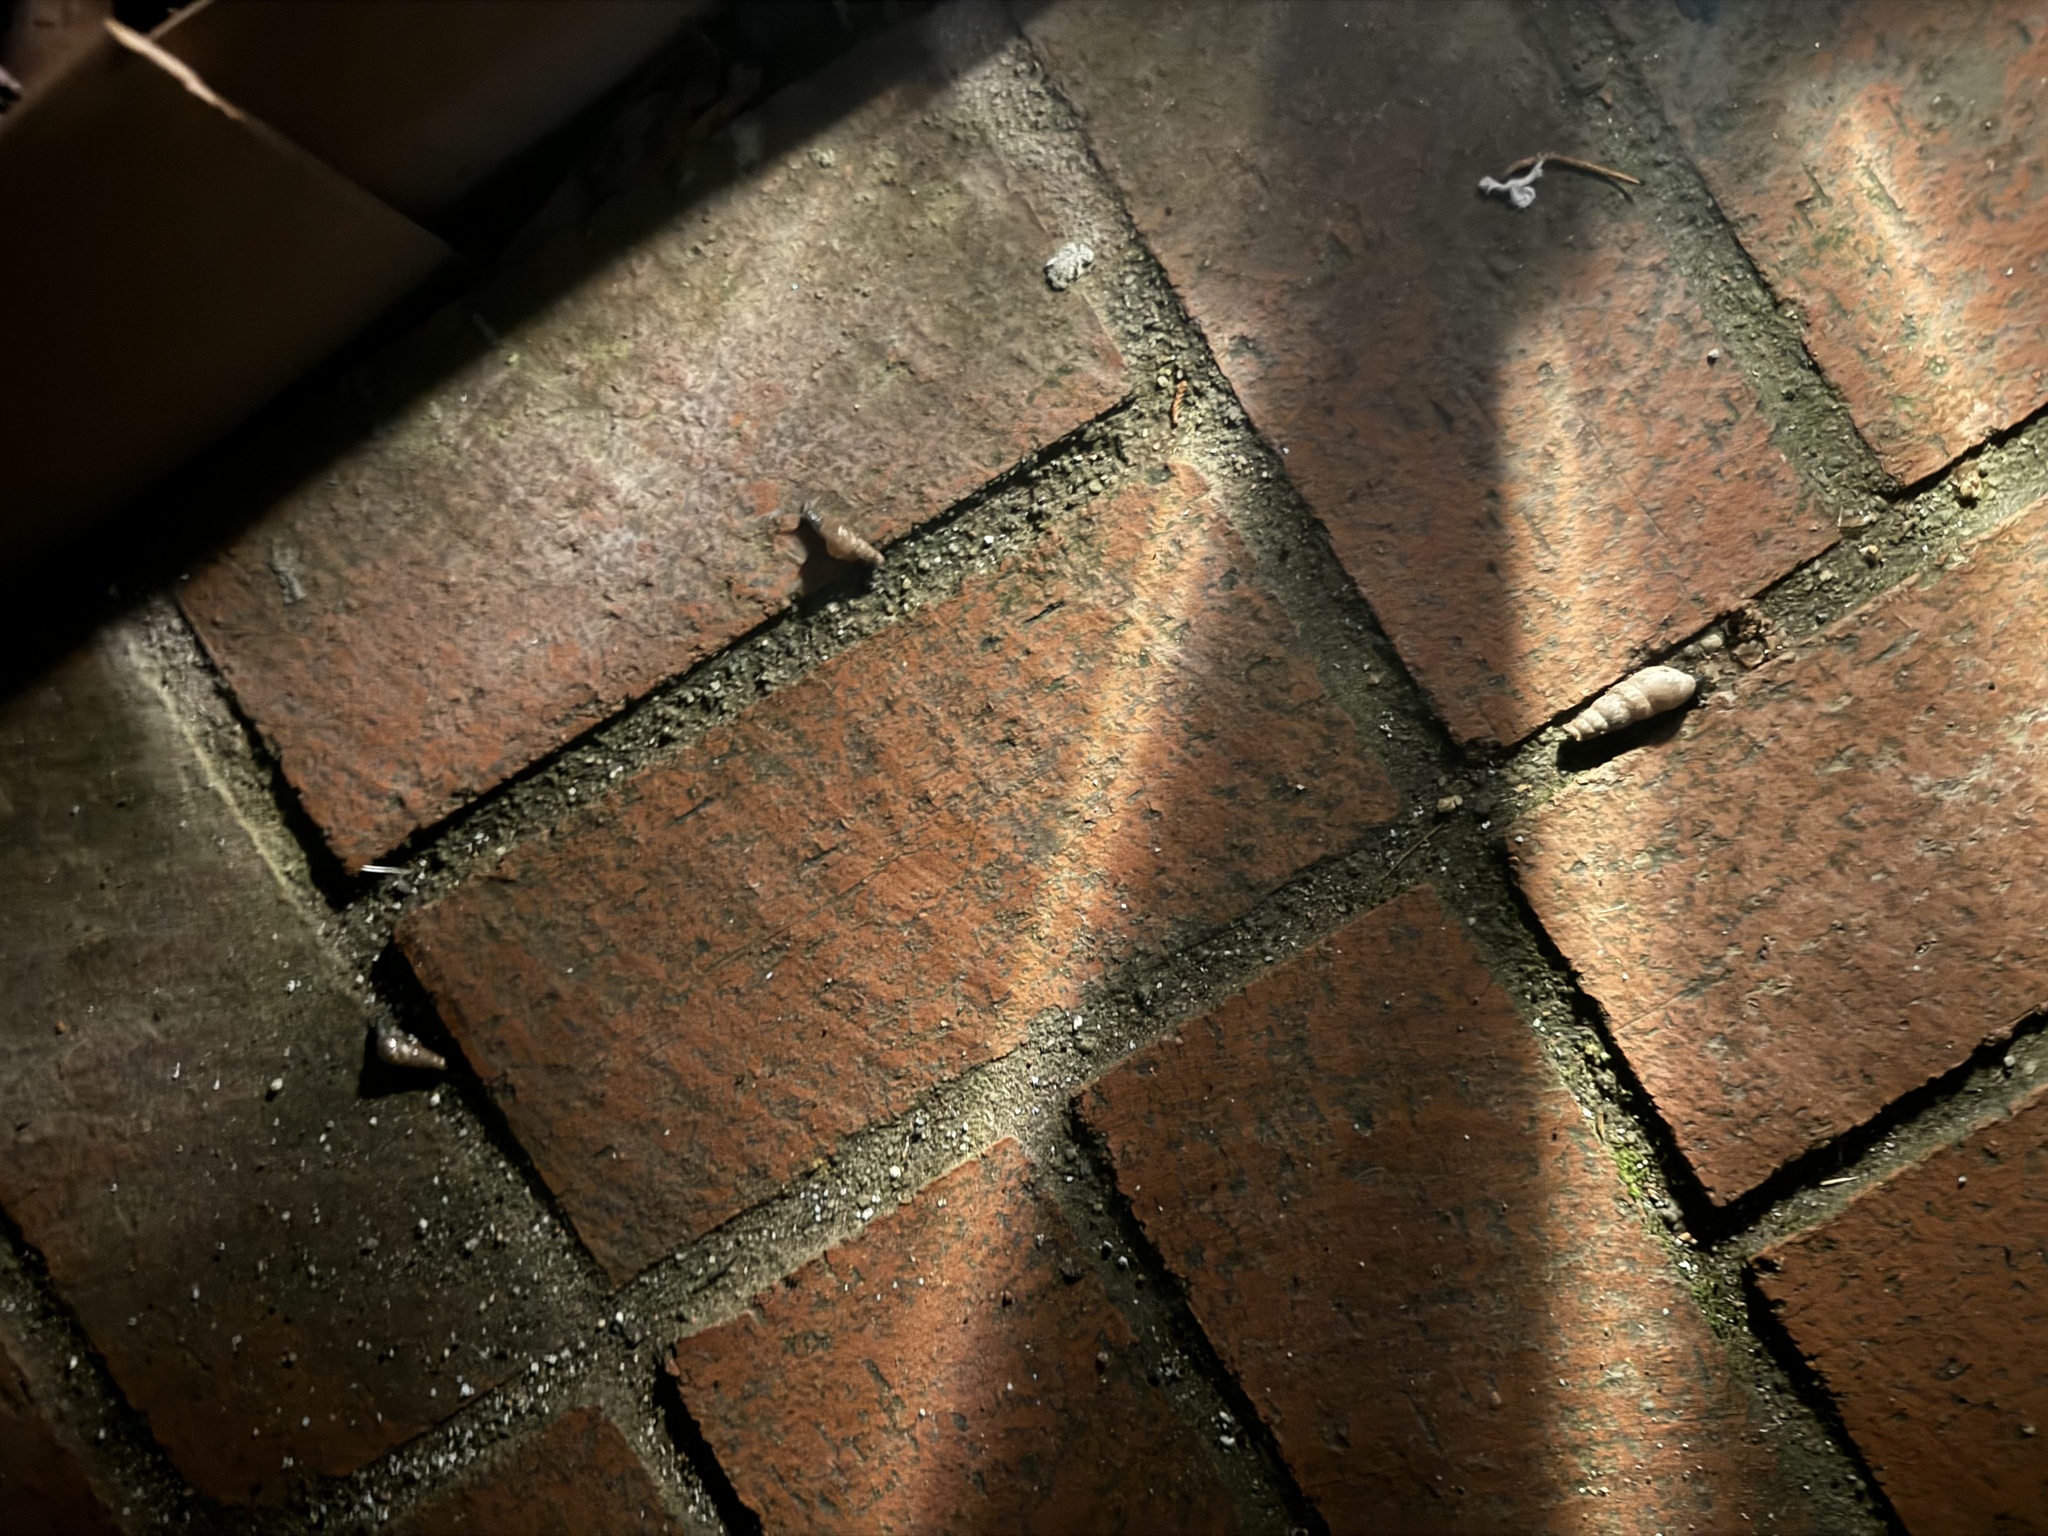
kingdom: Animalia
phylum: Mollusca
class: Gastropoda
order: Stylommatophora
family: Achatinidae
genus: Rumina
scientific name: Rumina decollata
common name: Decollate snail
